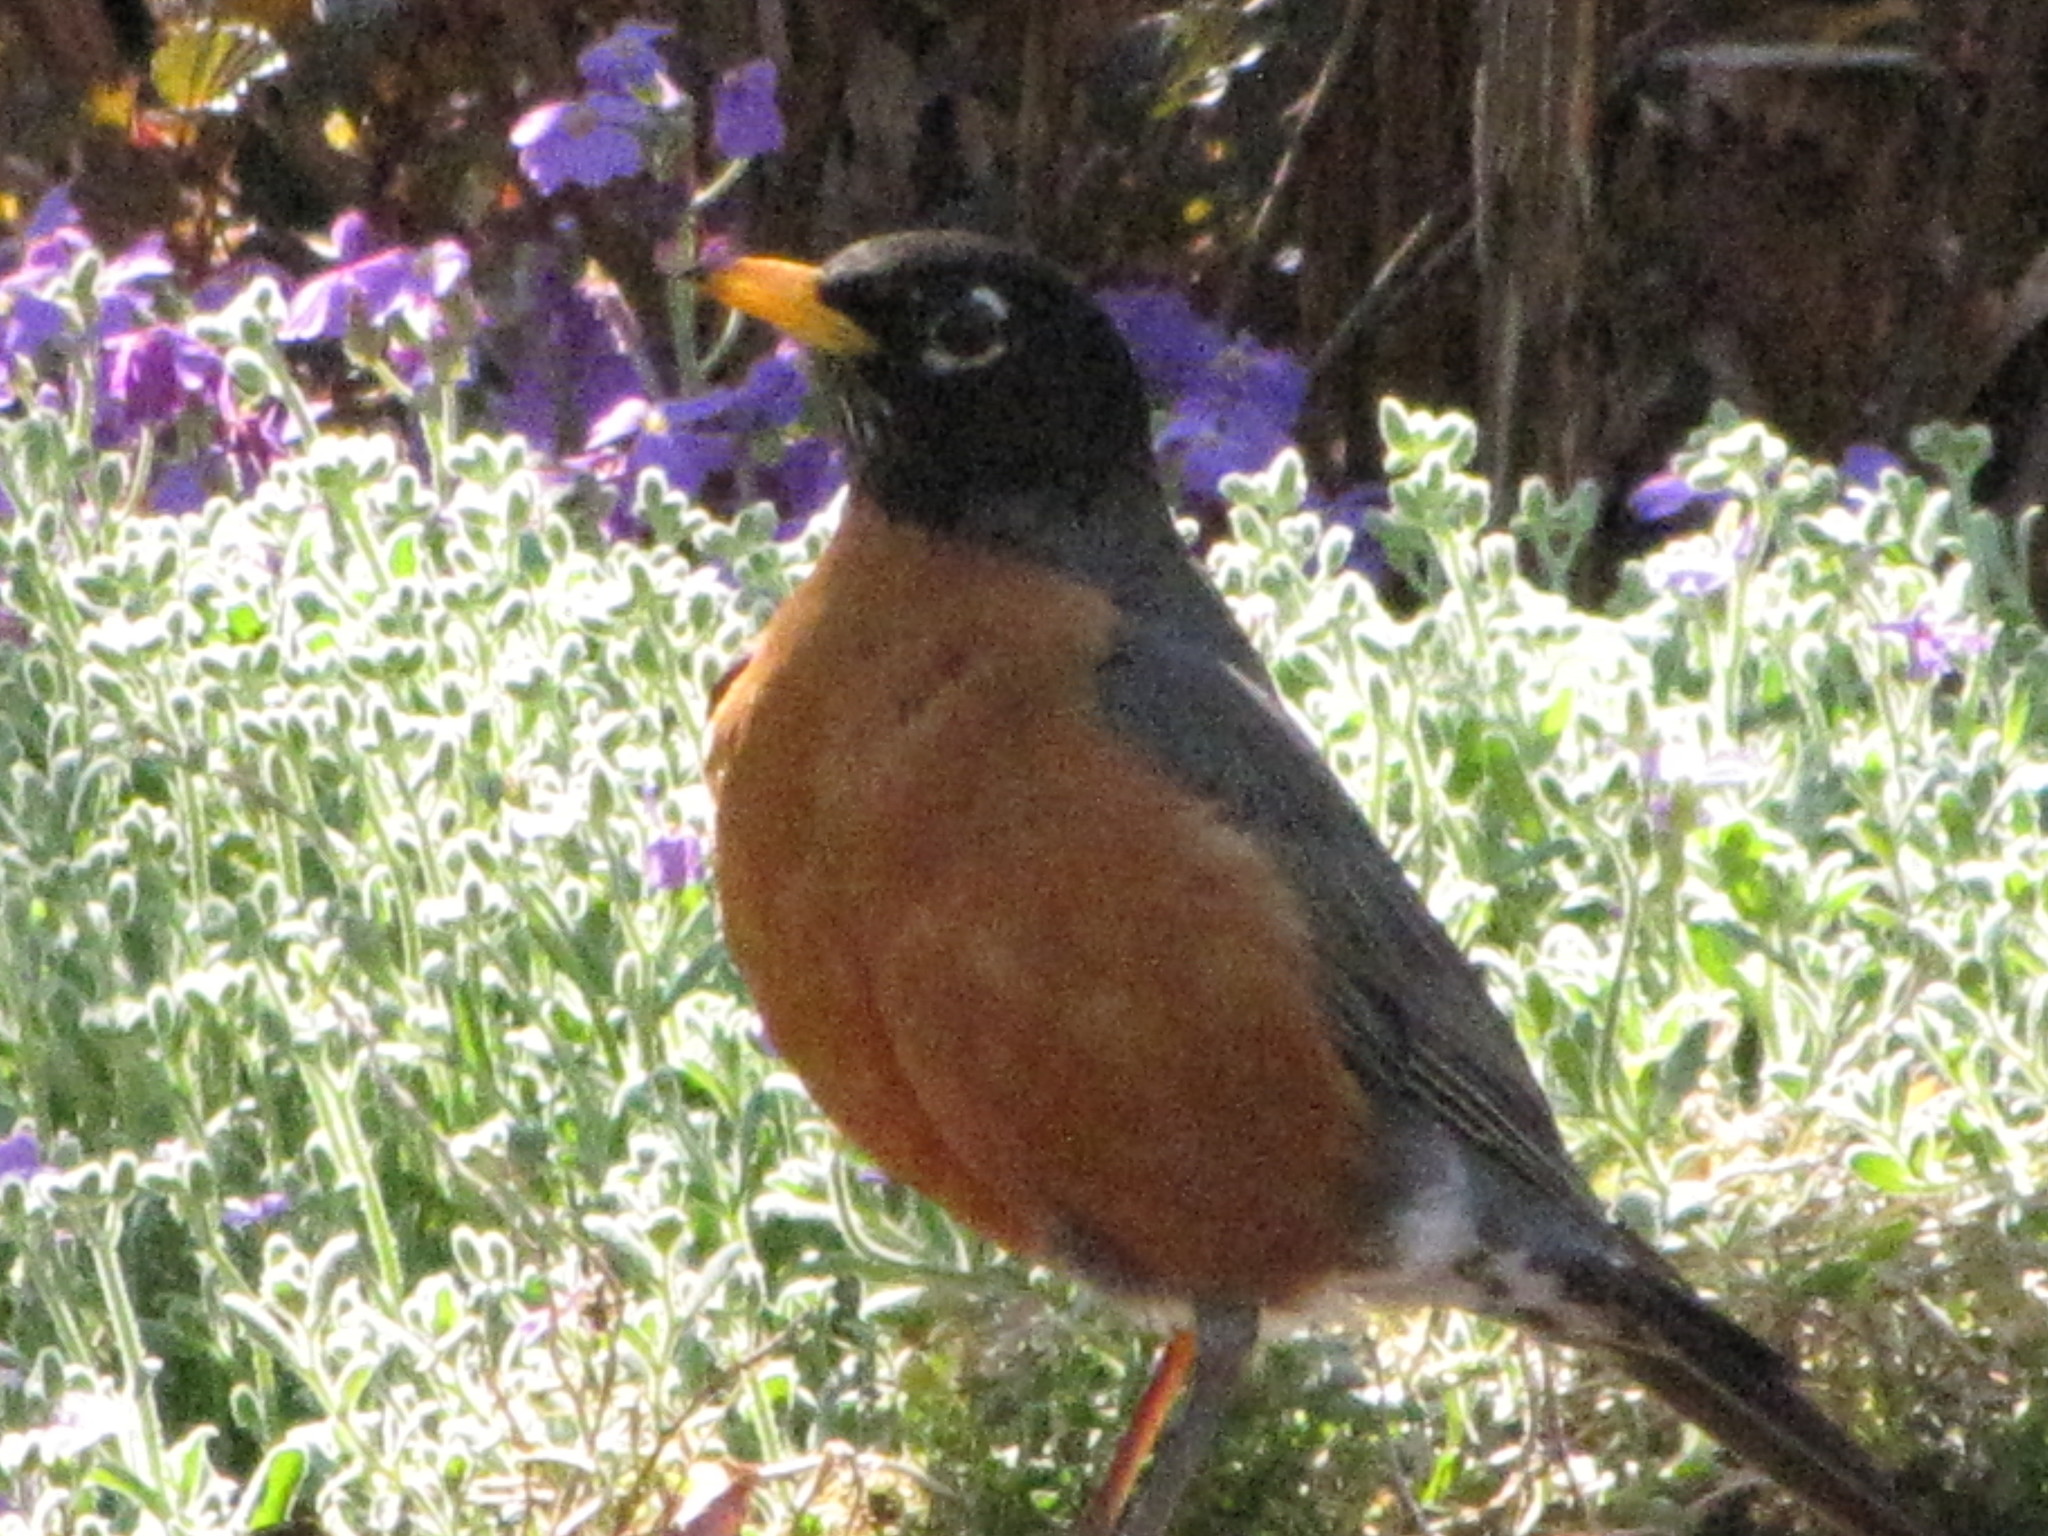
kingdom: Animalia
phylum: Chordata
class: Aves
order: Passeriformes
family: Turdidae
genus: Turdus
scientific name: Turdus migratorius
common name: American robin
